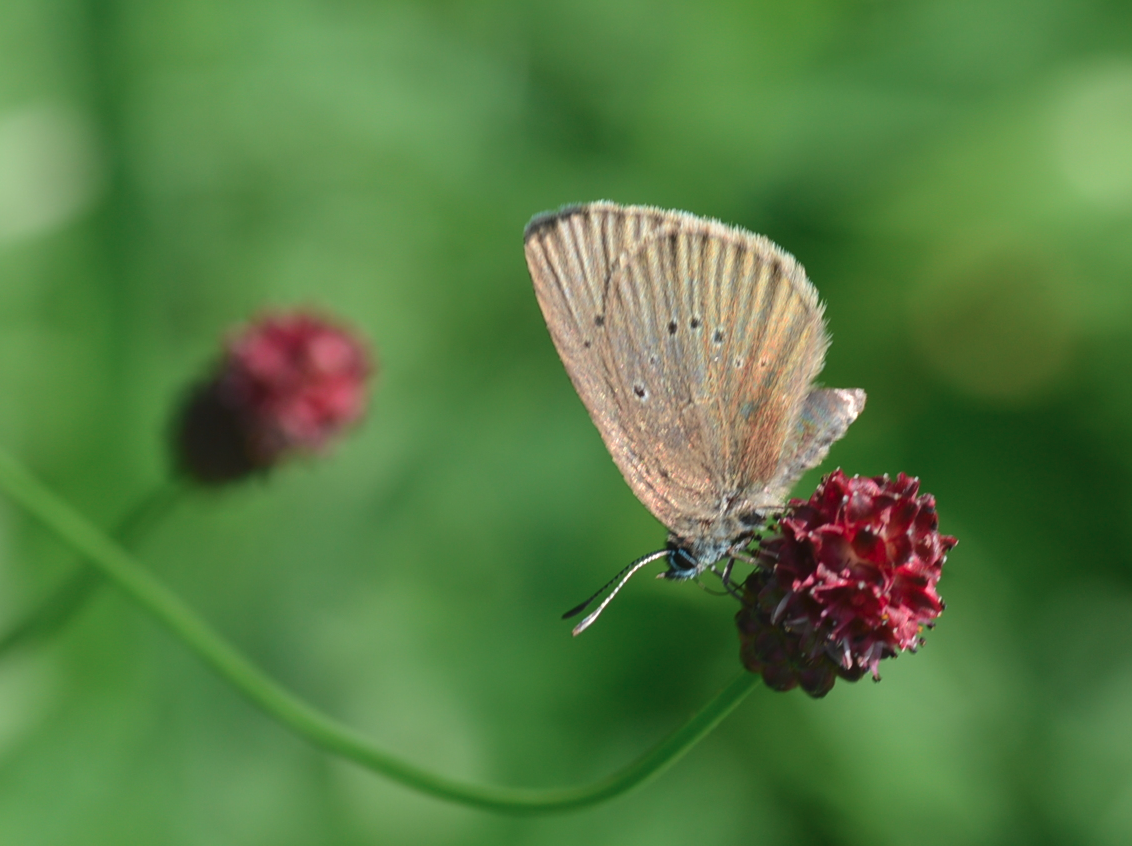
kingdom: Animalia
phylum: Arthropoda
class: Insecta
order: Lepidoptera
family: Lycaenidae
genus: Maculinea
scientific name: Maculinea nausithous
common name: Dusky large blue
